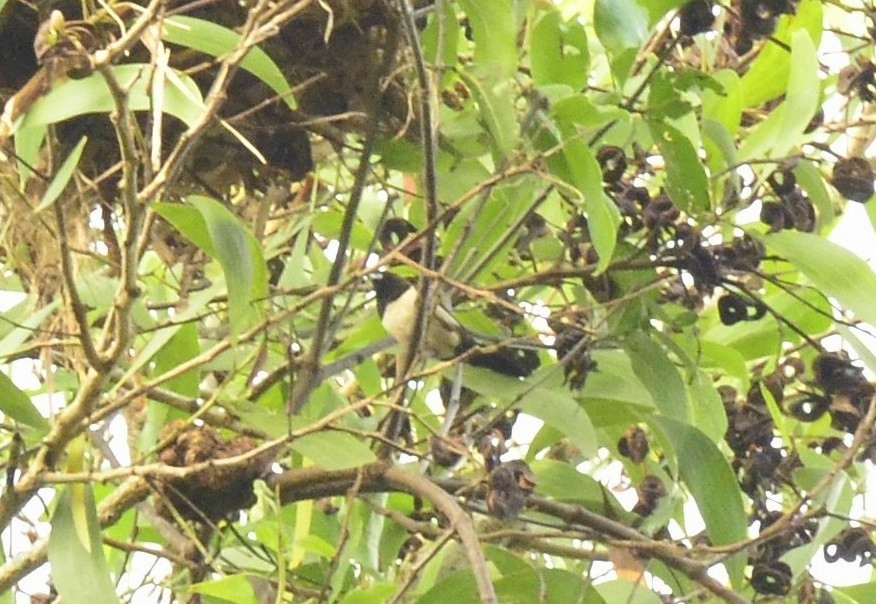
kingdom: Animalia
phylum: Chordata
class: Aves
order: Passeriformes
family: Estrildidae
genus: Lonchura
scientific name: Lonchura striata
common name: White-rumped munia
